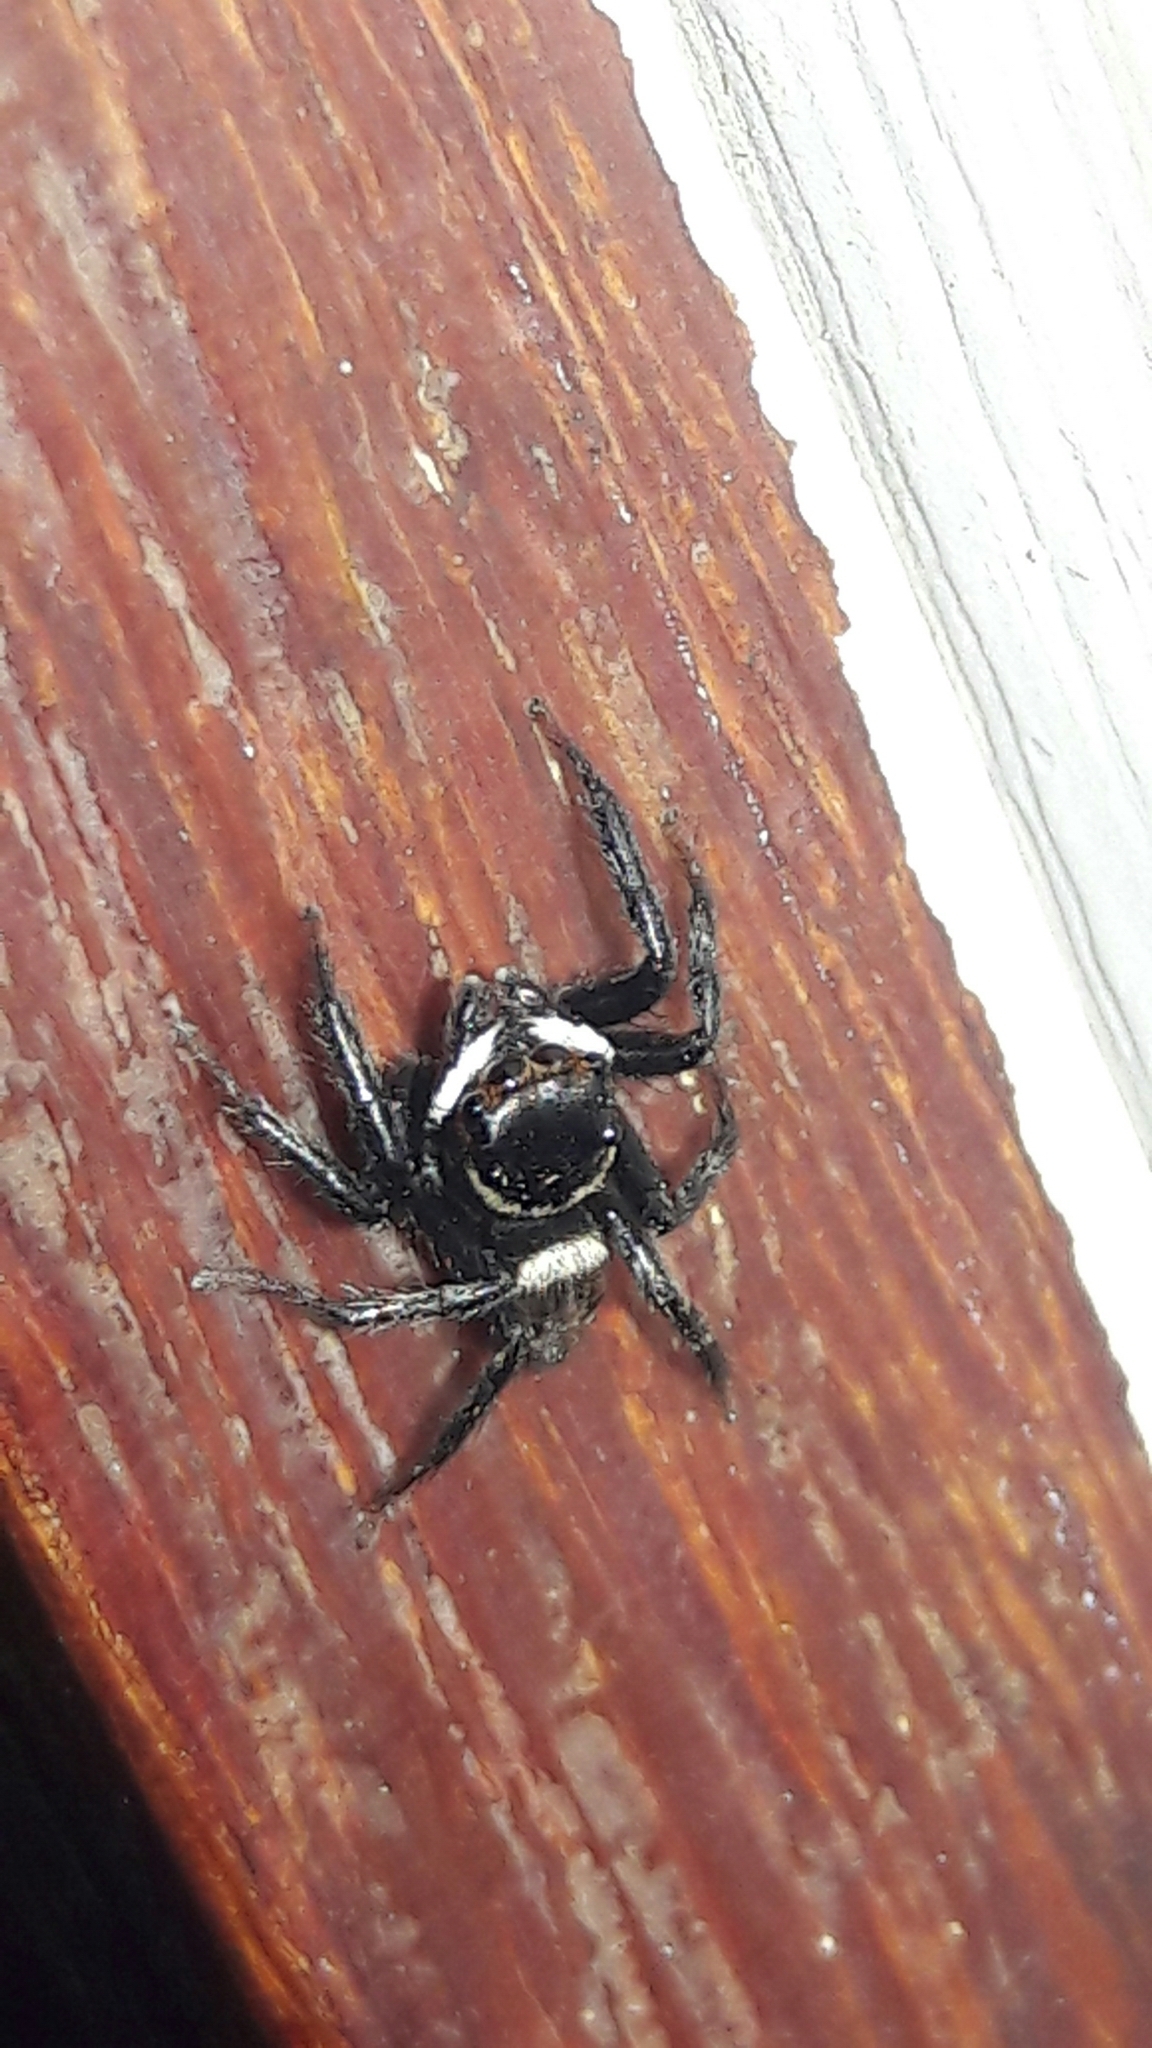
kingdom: Animalia
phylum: Arthropoda
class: Arachnida
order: Araneae
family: Salticidae
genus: Hasarius
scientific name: Hasarius adansoni
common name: Jumping spider
